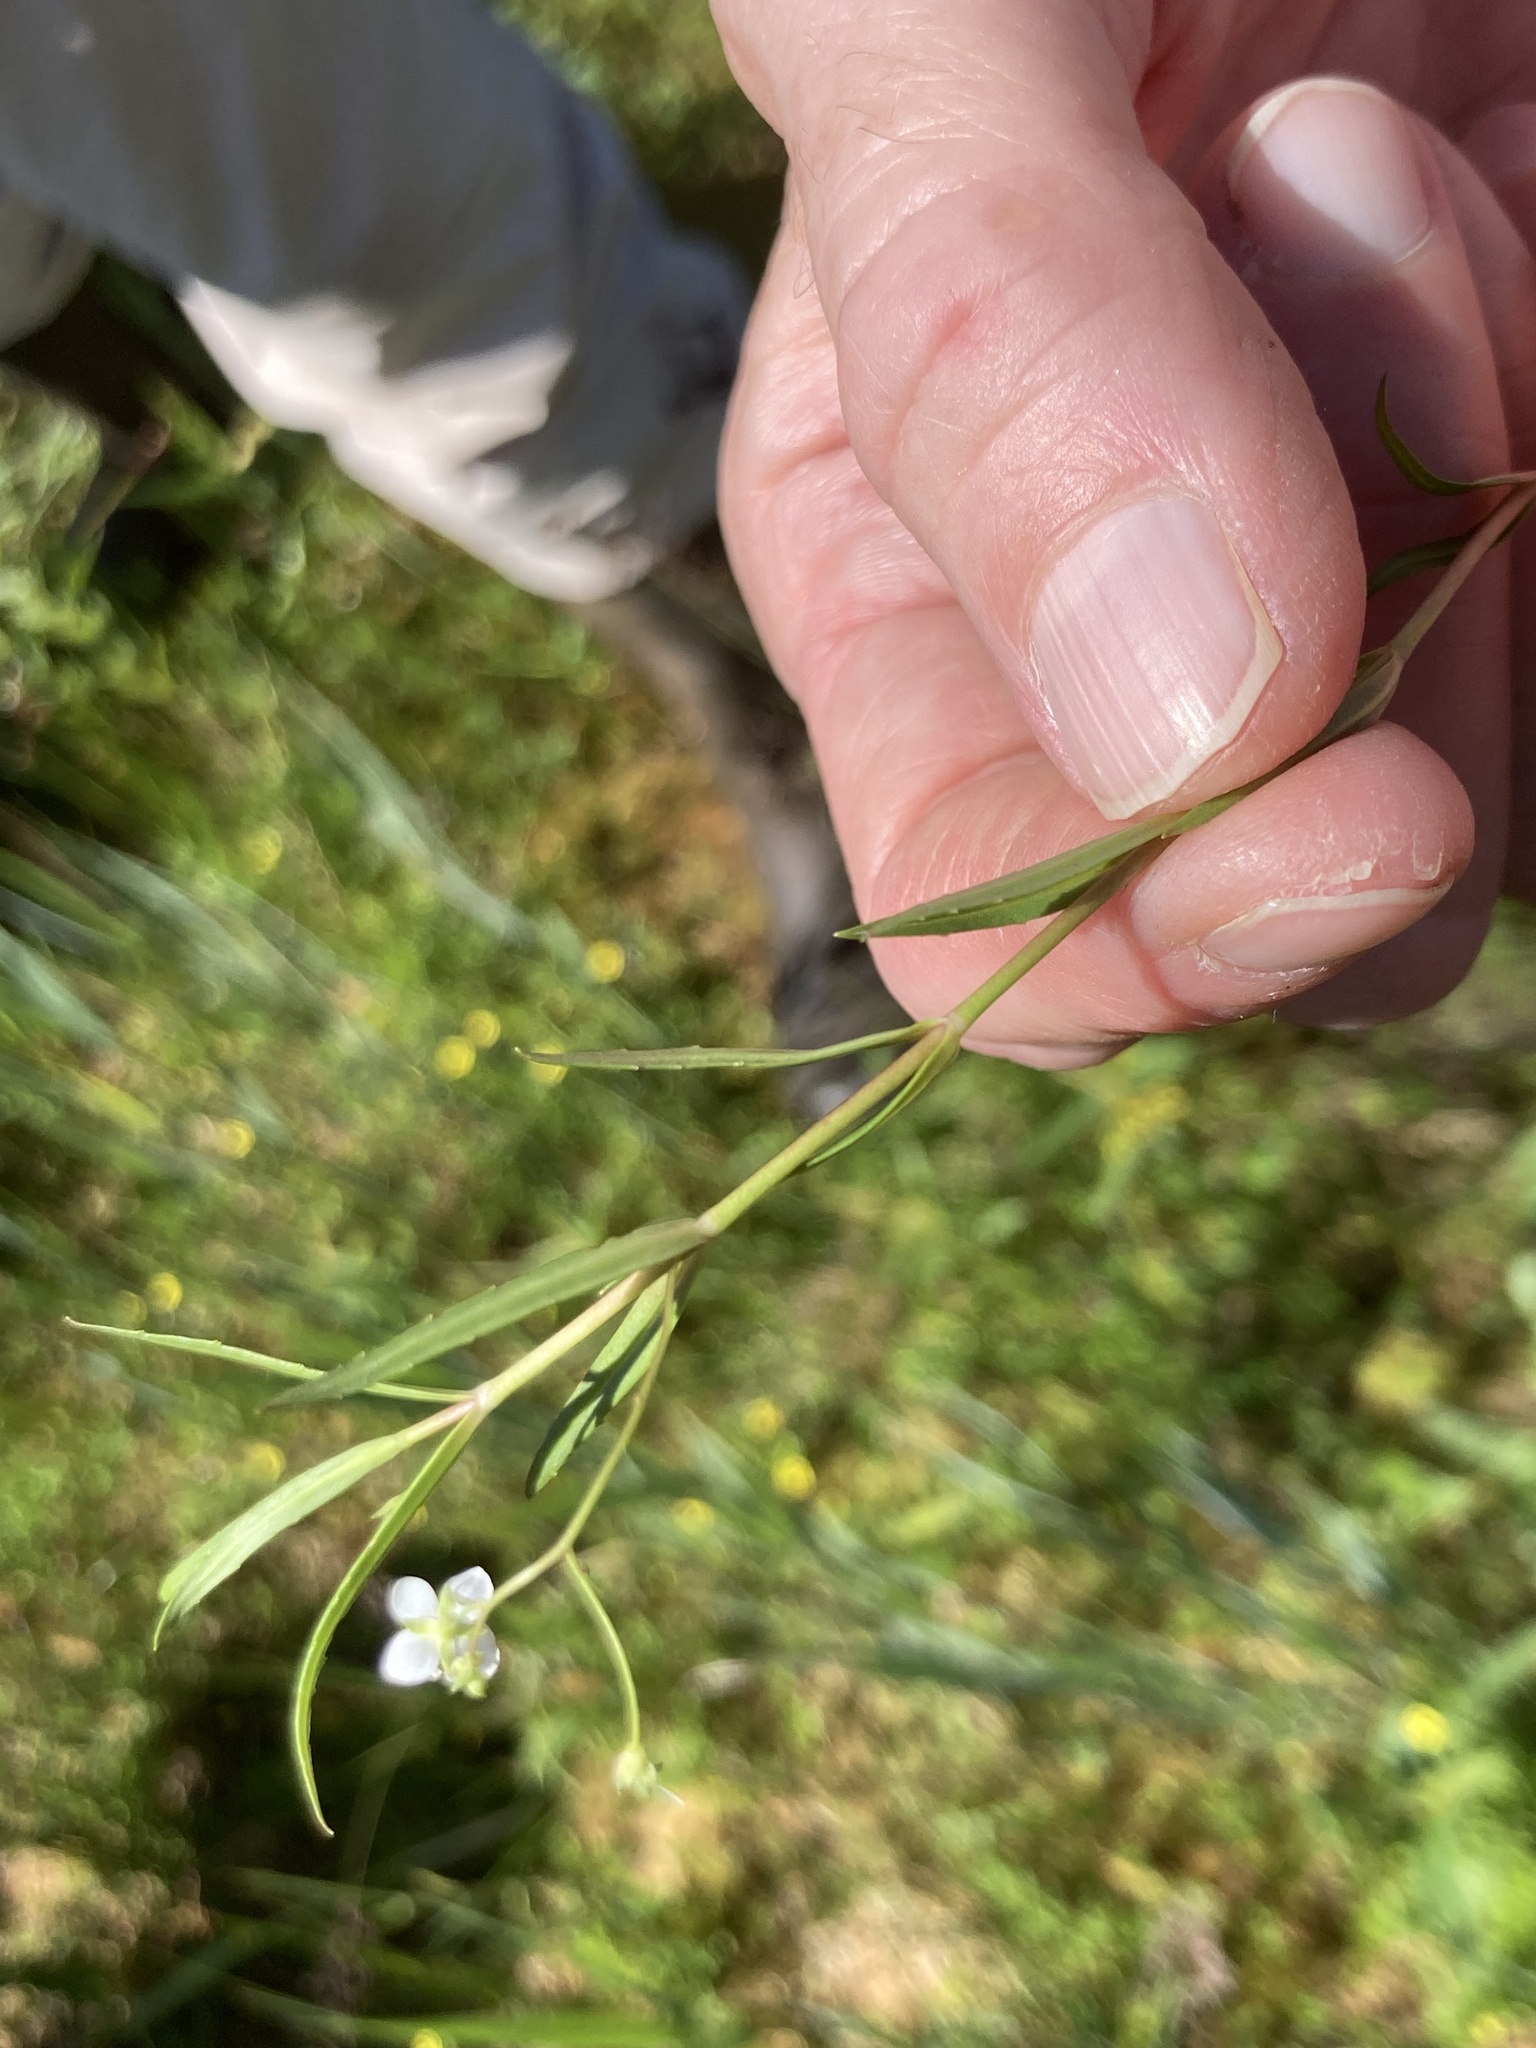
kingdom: Plantae
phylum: Tracheophyta
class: Magnoliopsida
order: Lamiales
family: Plantaginaceae
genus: Veronica
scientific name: Veronica scutellata
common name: Marsh speedwell
